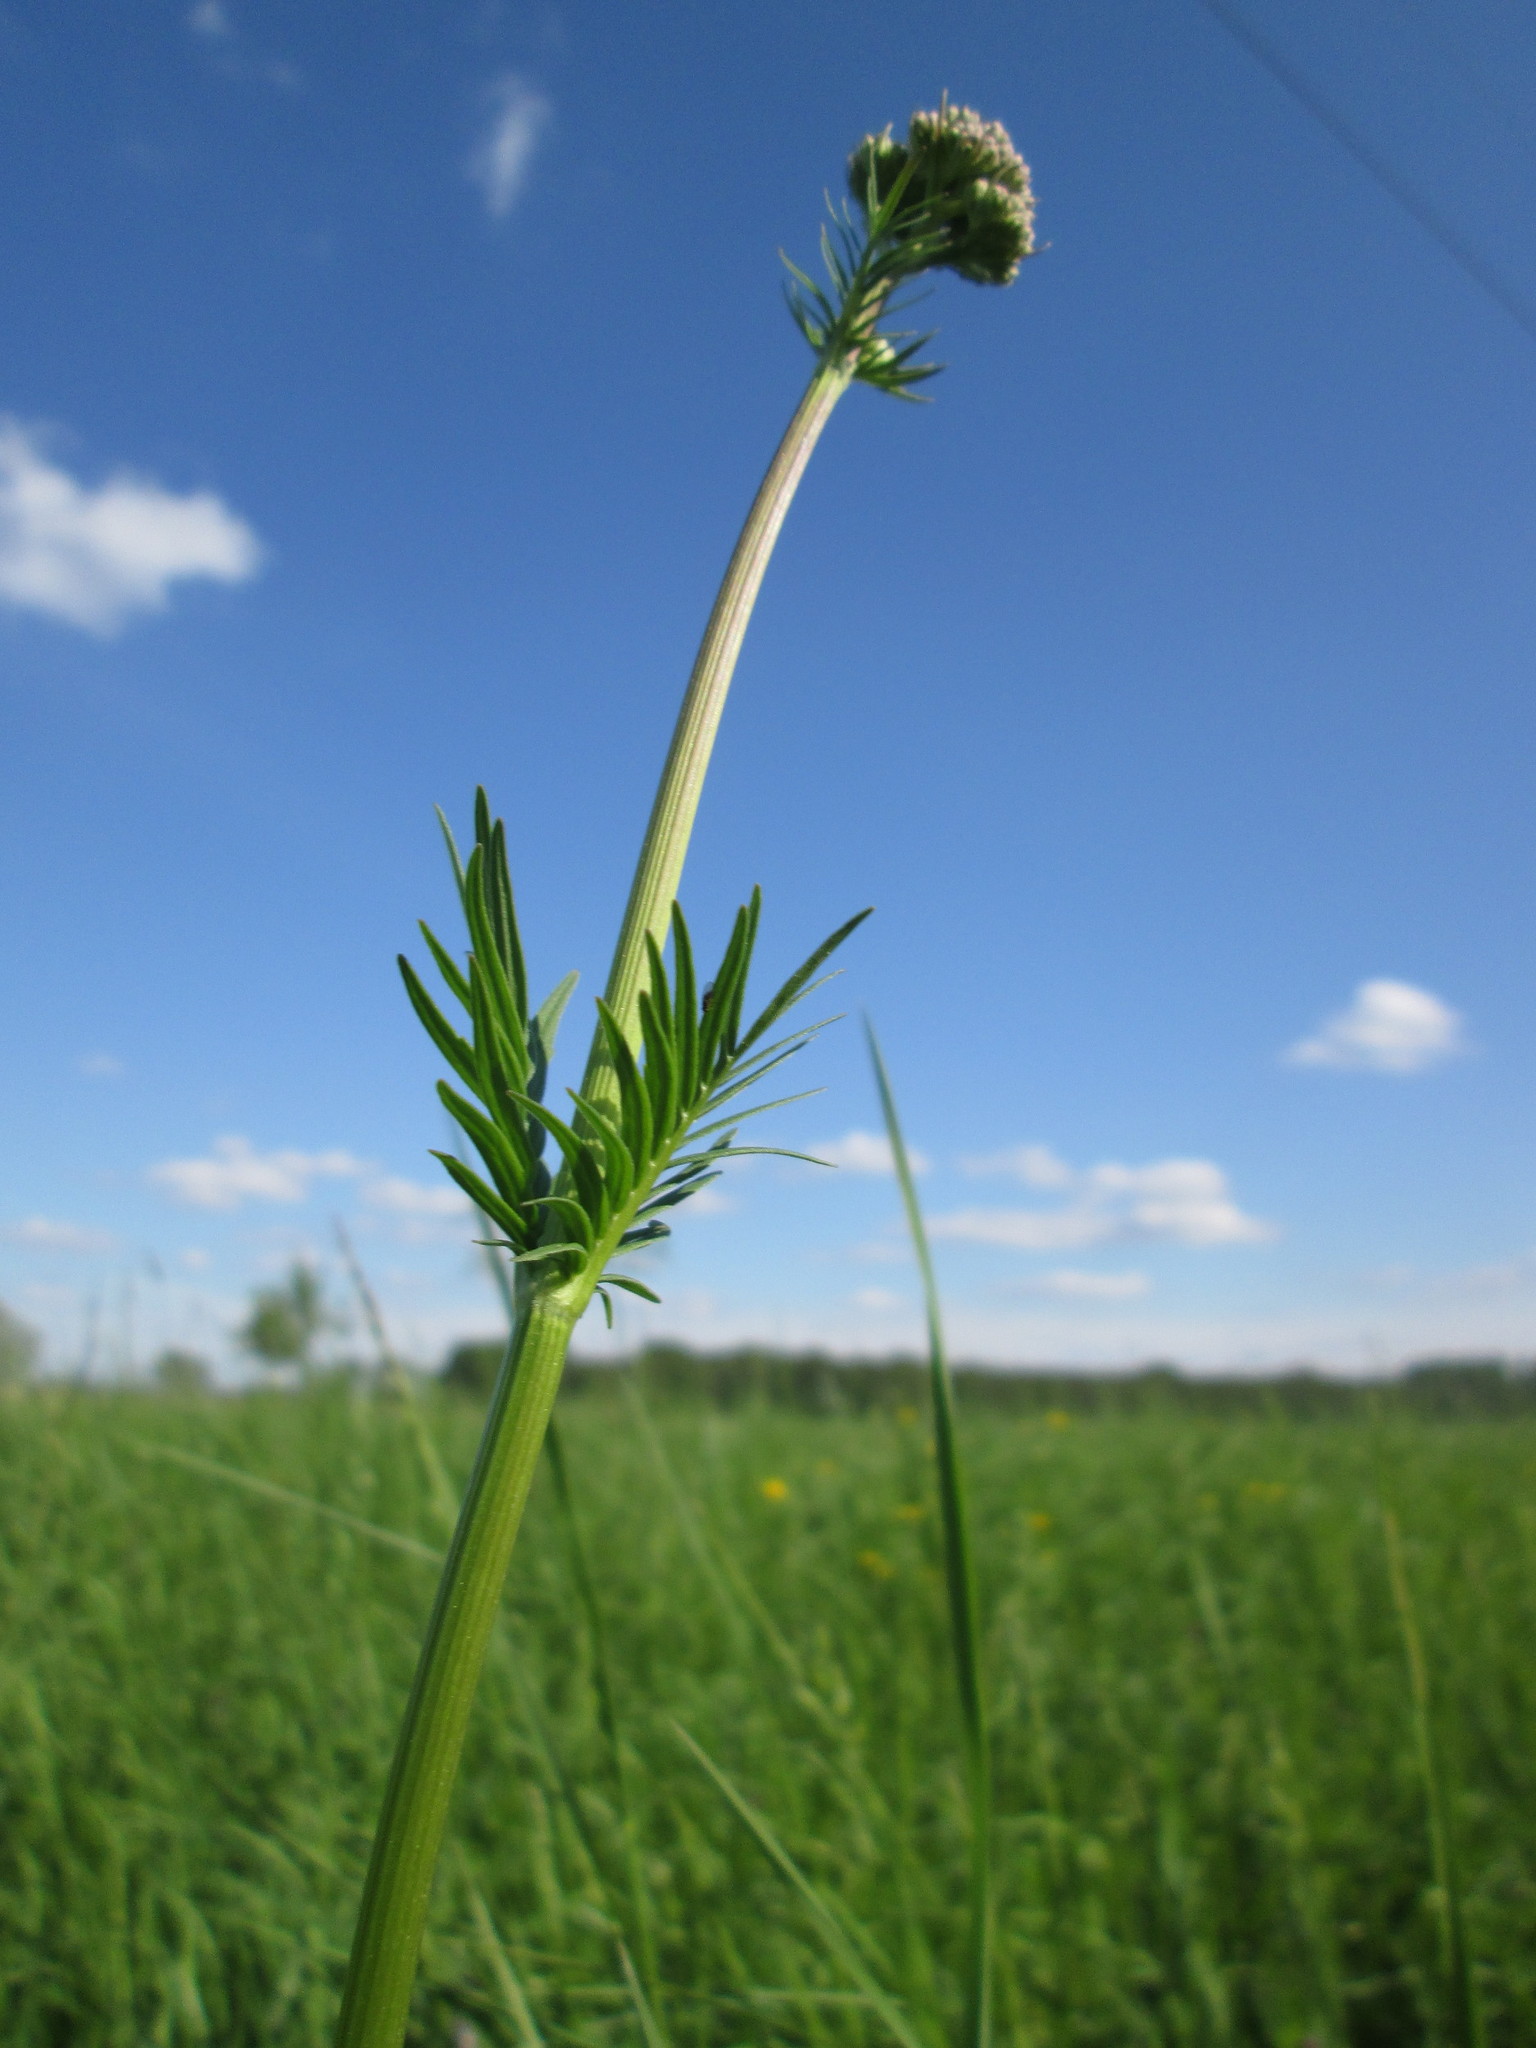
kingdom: Plantae
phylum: Tracheophyta
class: Magnoliopsida
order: Dipsacales
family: Caprifoliaceae
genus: Valeriana
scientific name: Valeriana officinalis
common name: Common valerian
